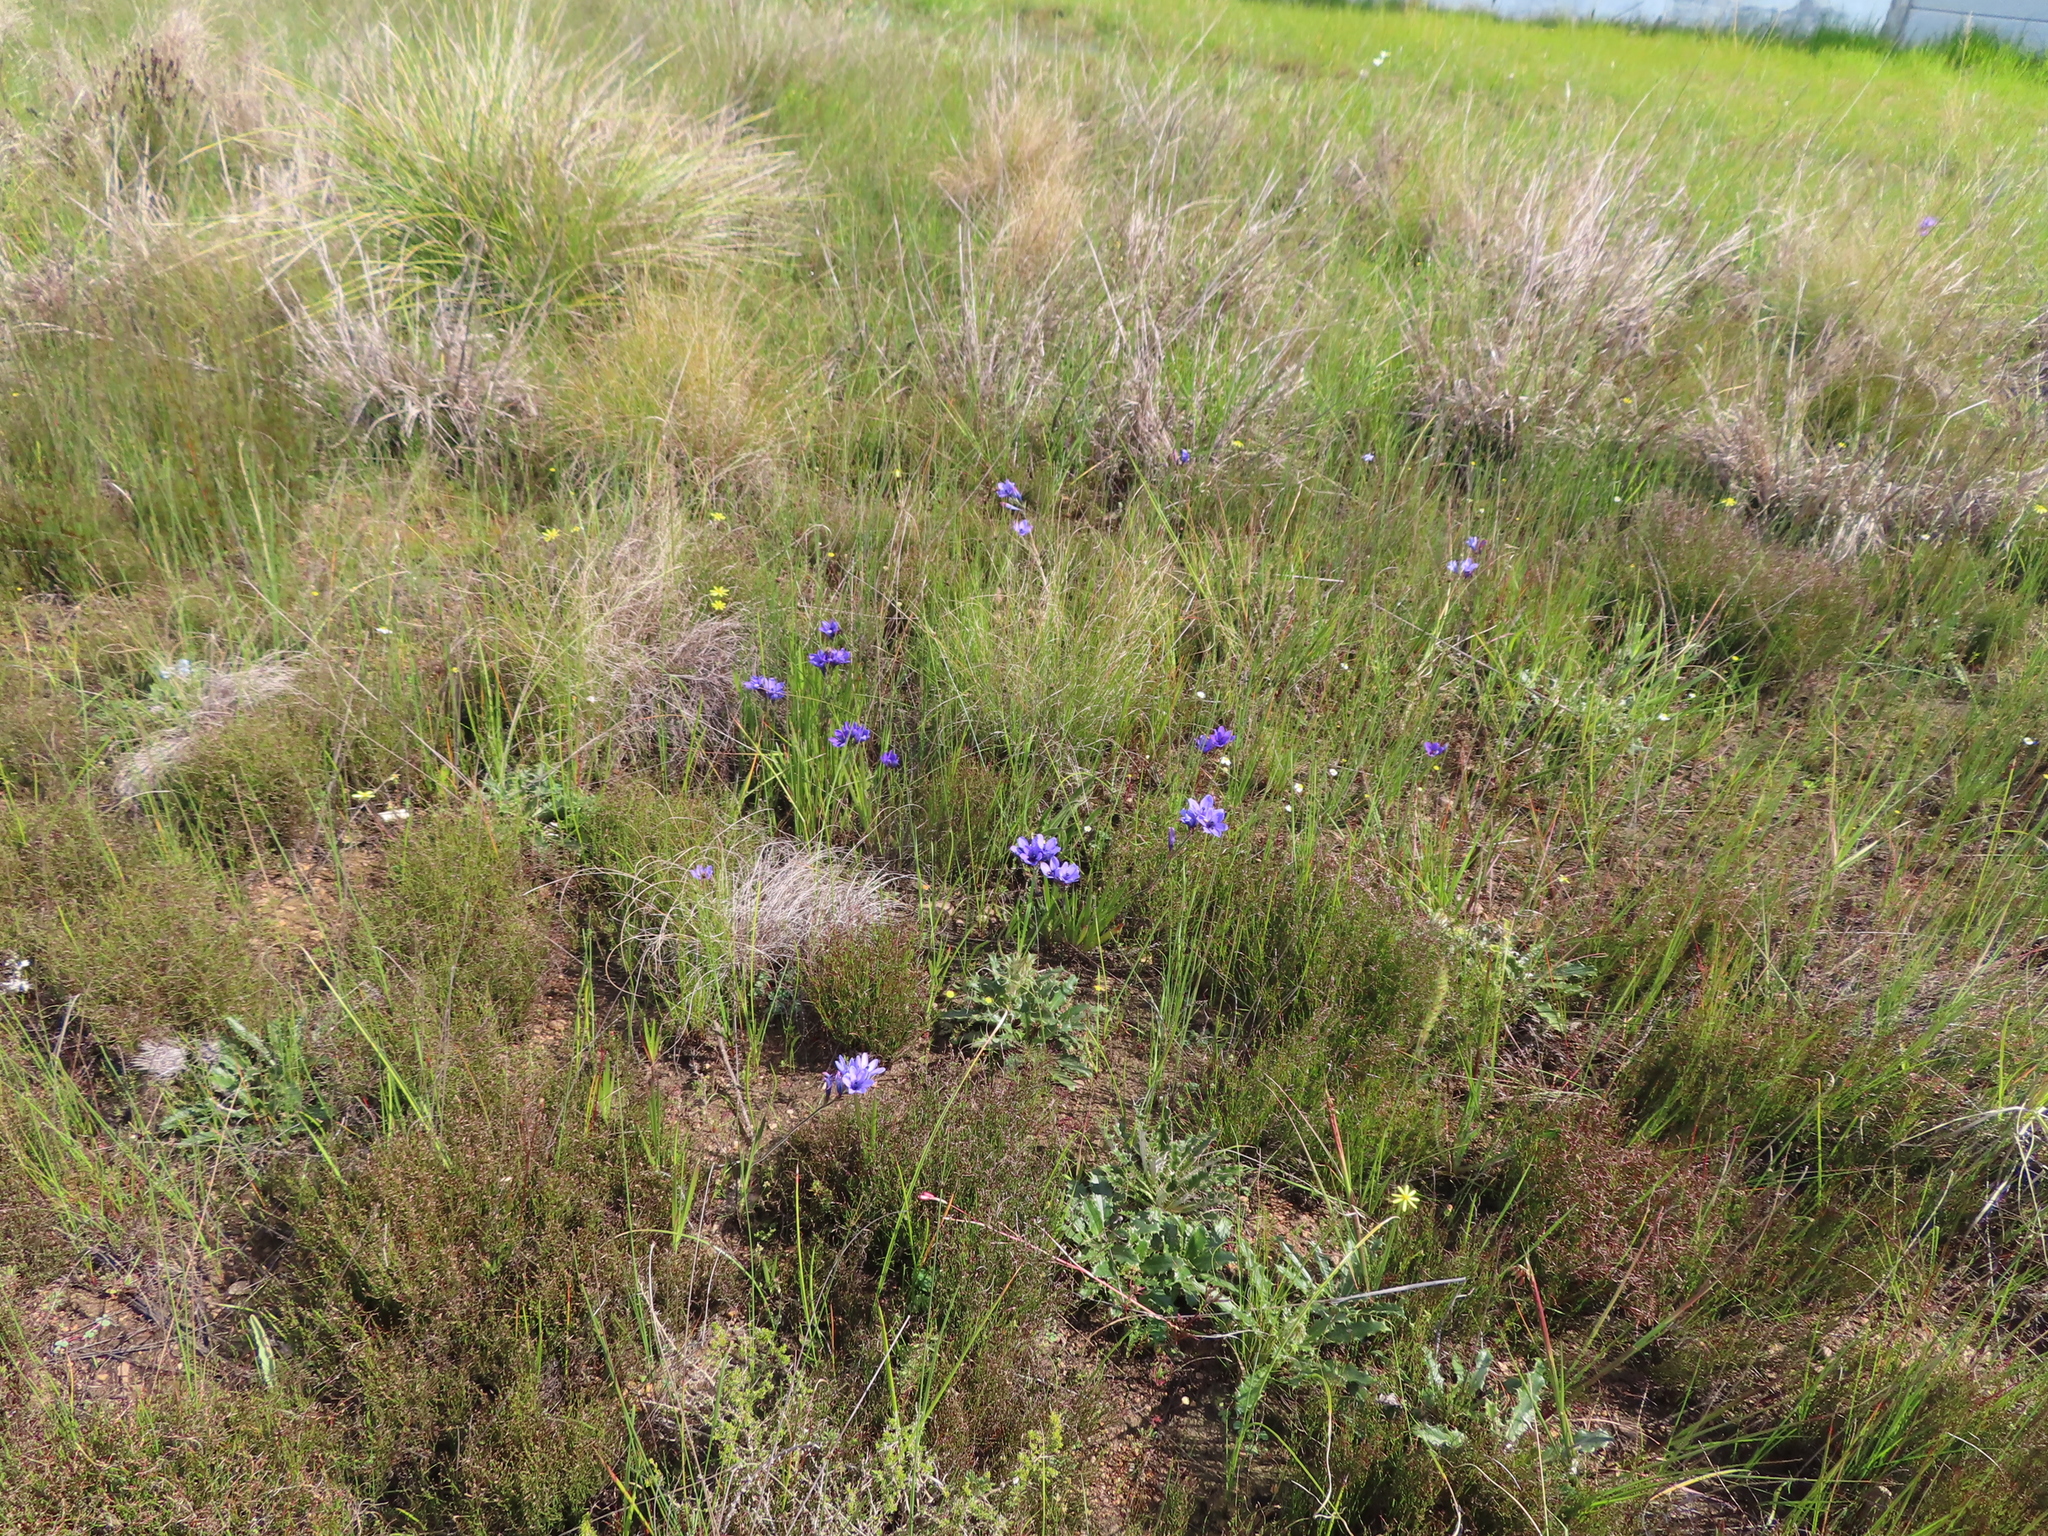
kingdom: Plantae
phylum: Tracheophyta
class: Liliopsida
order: Asparagales
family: Iridaceae
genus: Babiana
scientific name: Babiana angustifolia
